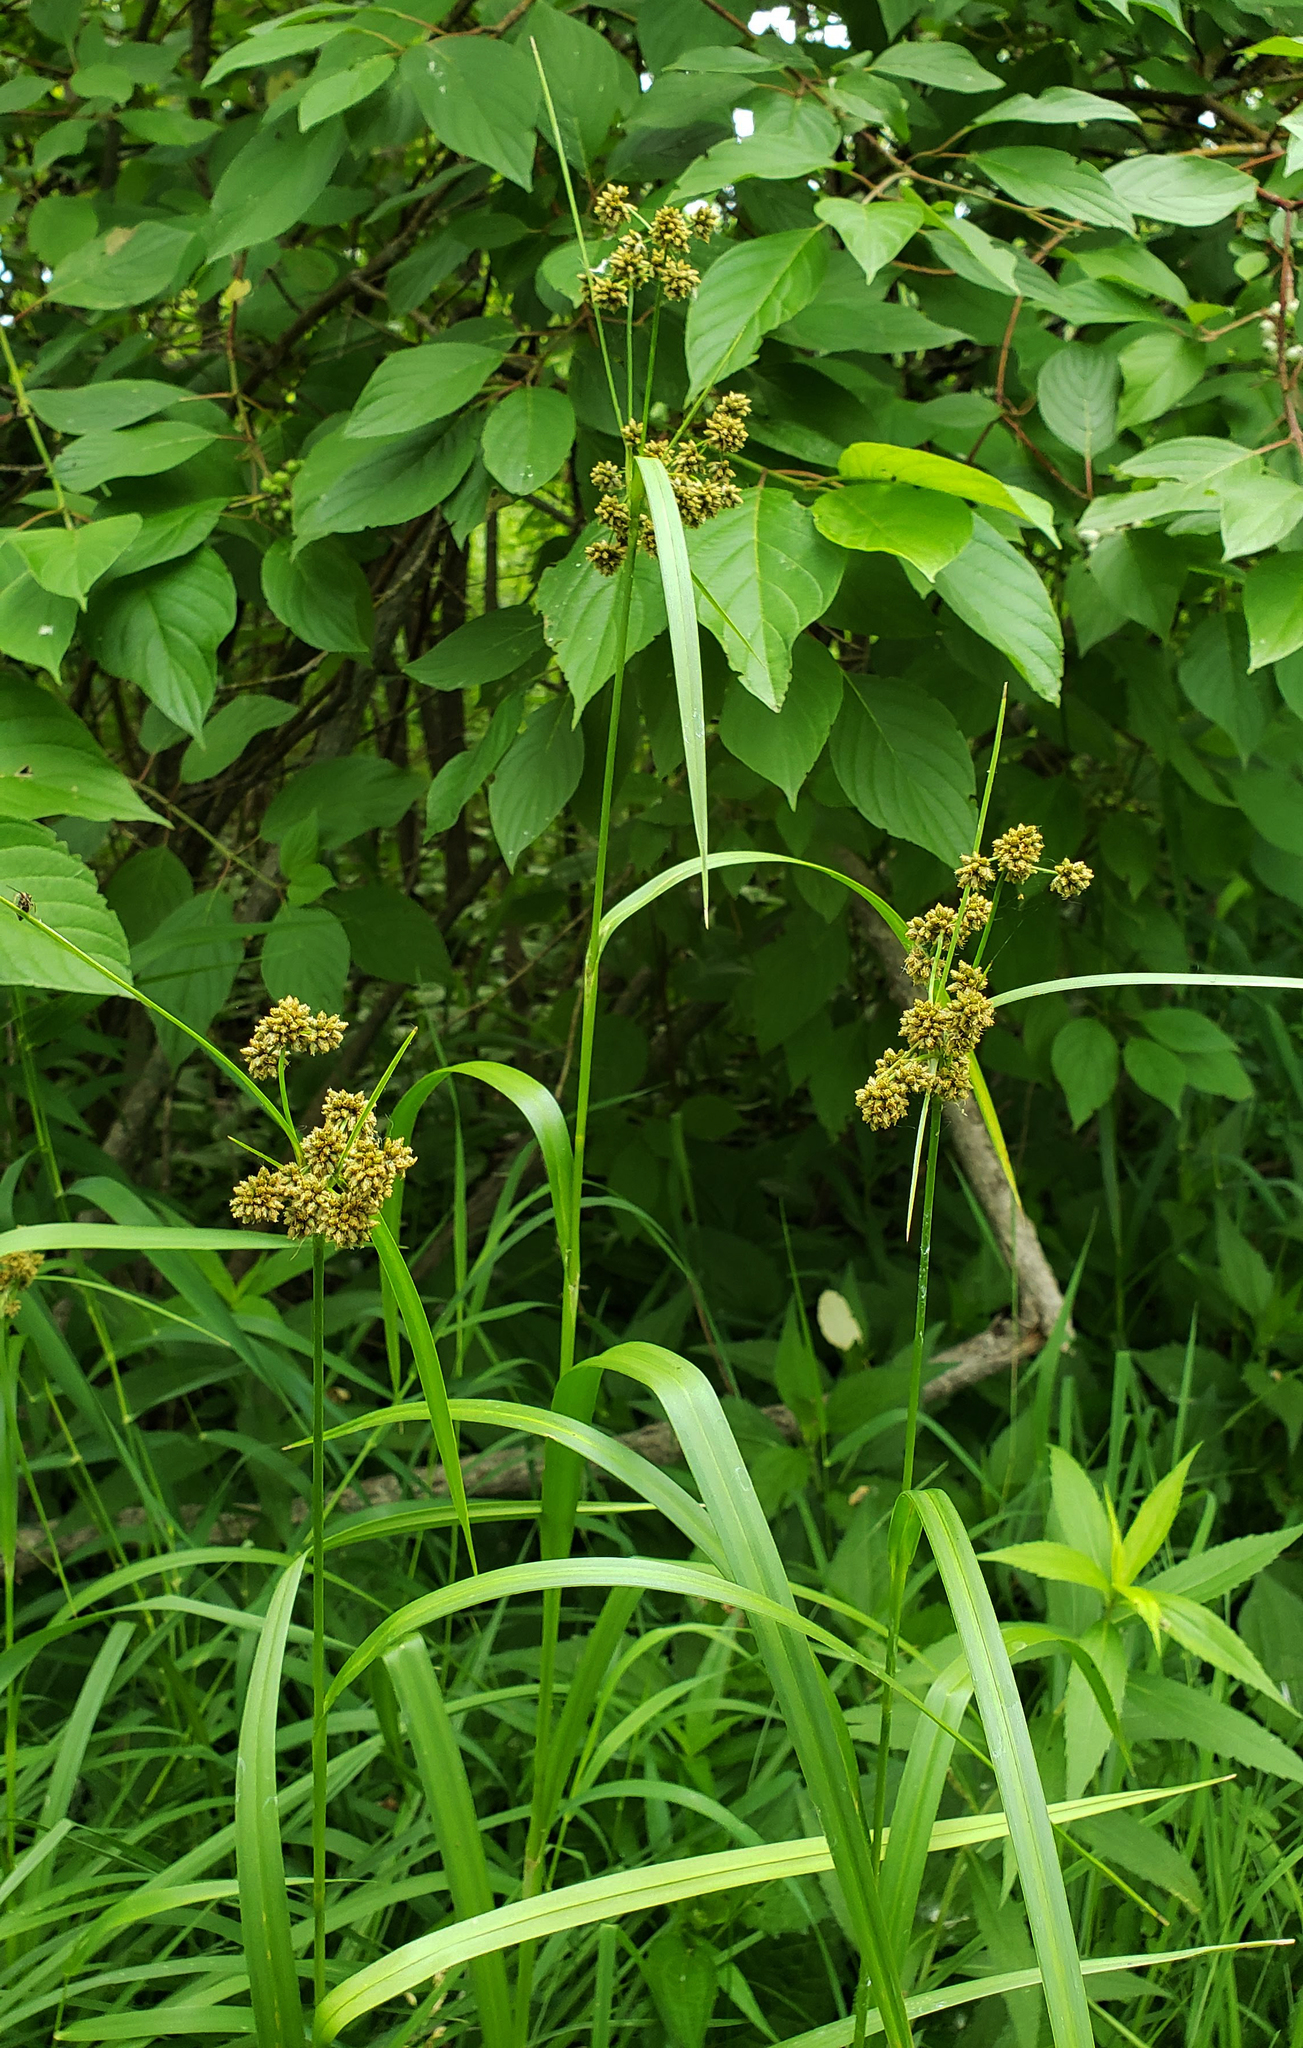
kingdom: Plantae
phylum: Tracheophyta
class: Liliopsida
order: Poales
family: Cyperaceae
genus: Scirpus
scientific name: Scirpus atrovirens
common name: Black bulrush
